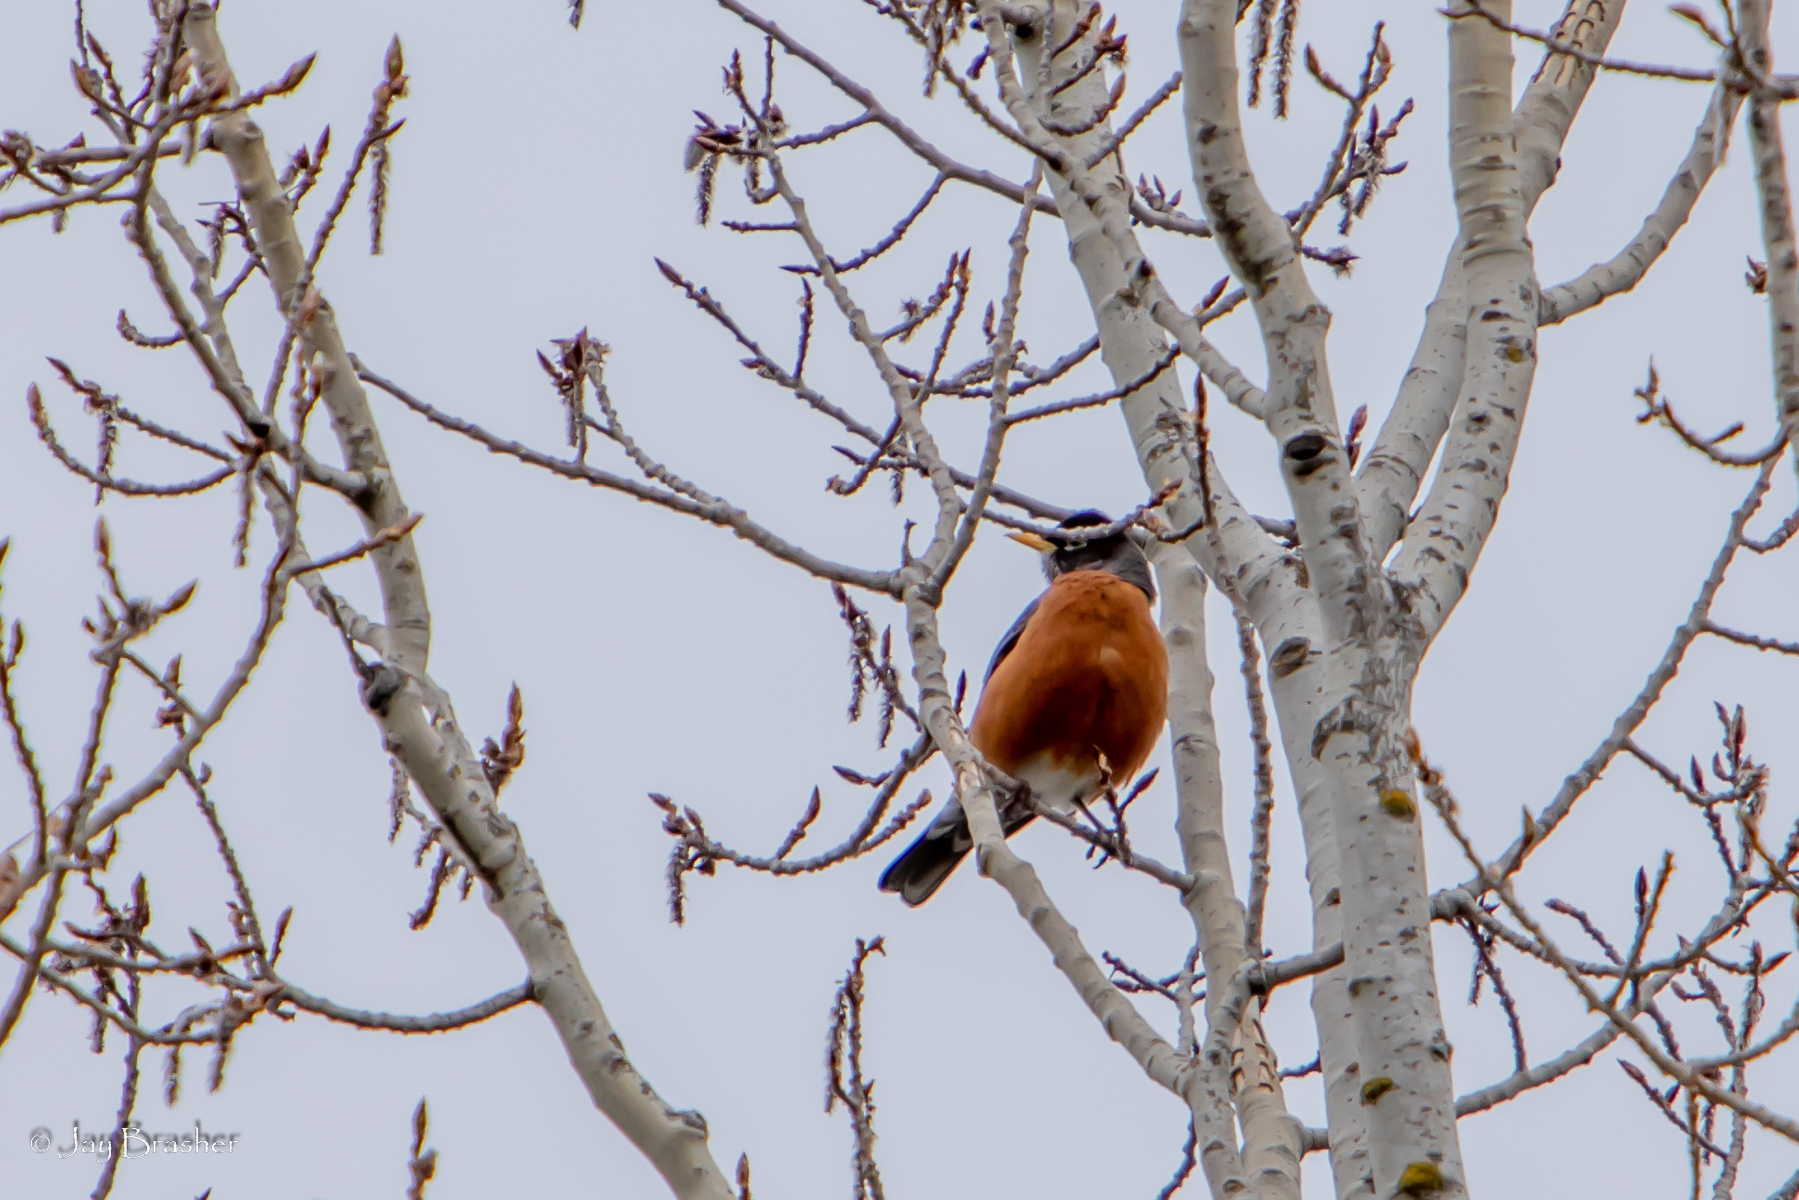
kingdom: Animalia
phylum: Chordata
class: Aves
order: Passeriformes
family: Turdidae
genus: Turdus
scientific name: Turdus migratorius
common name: American robin
